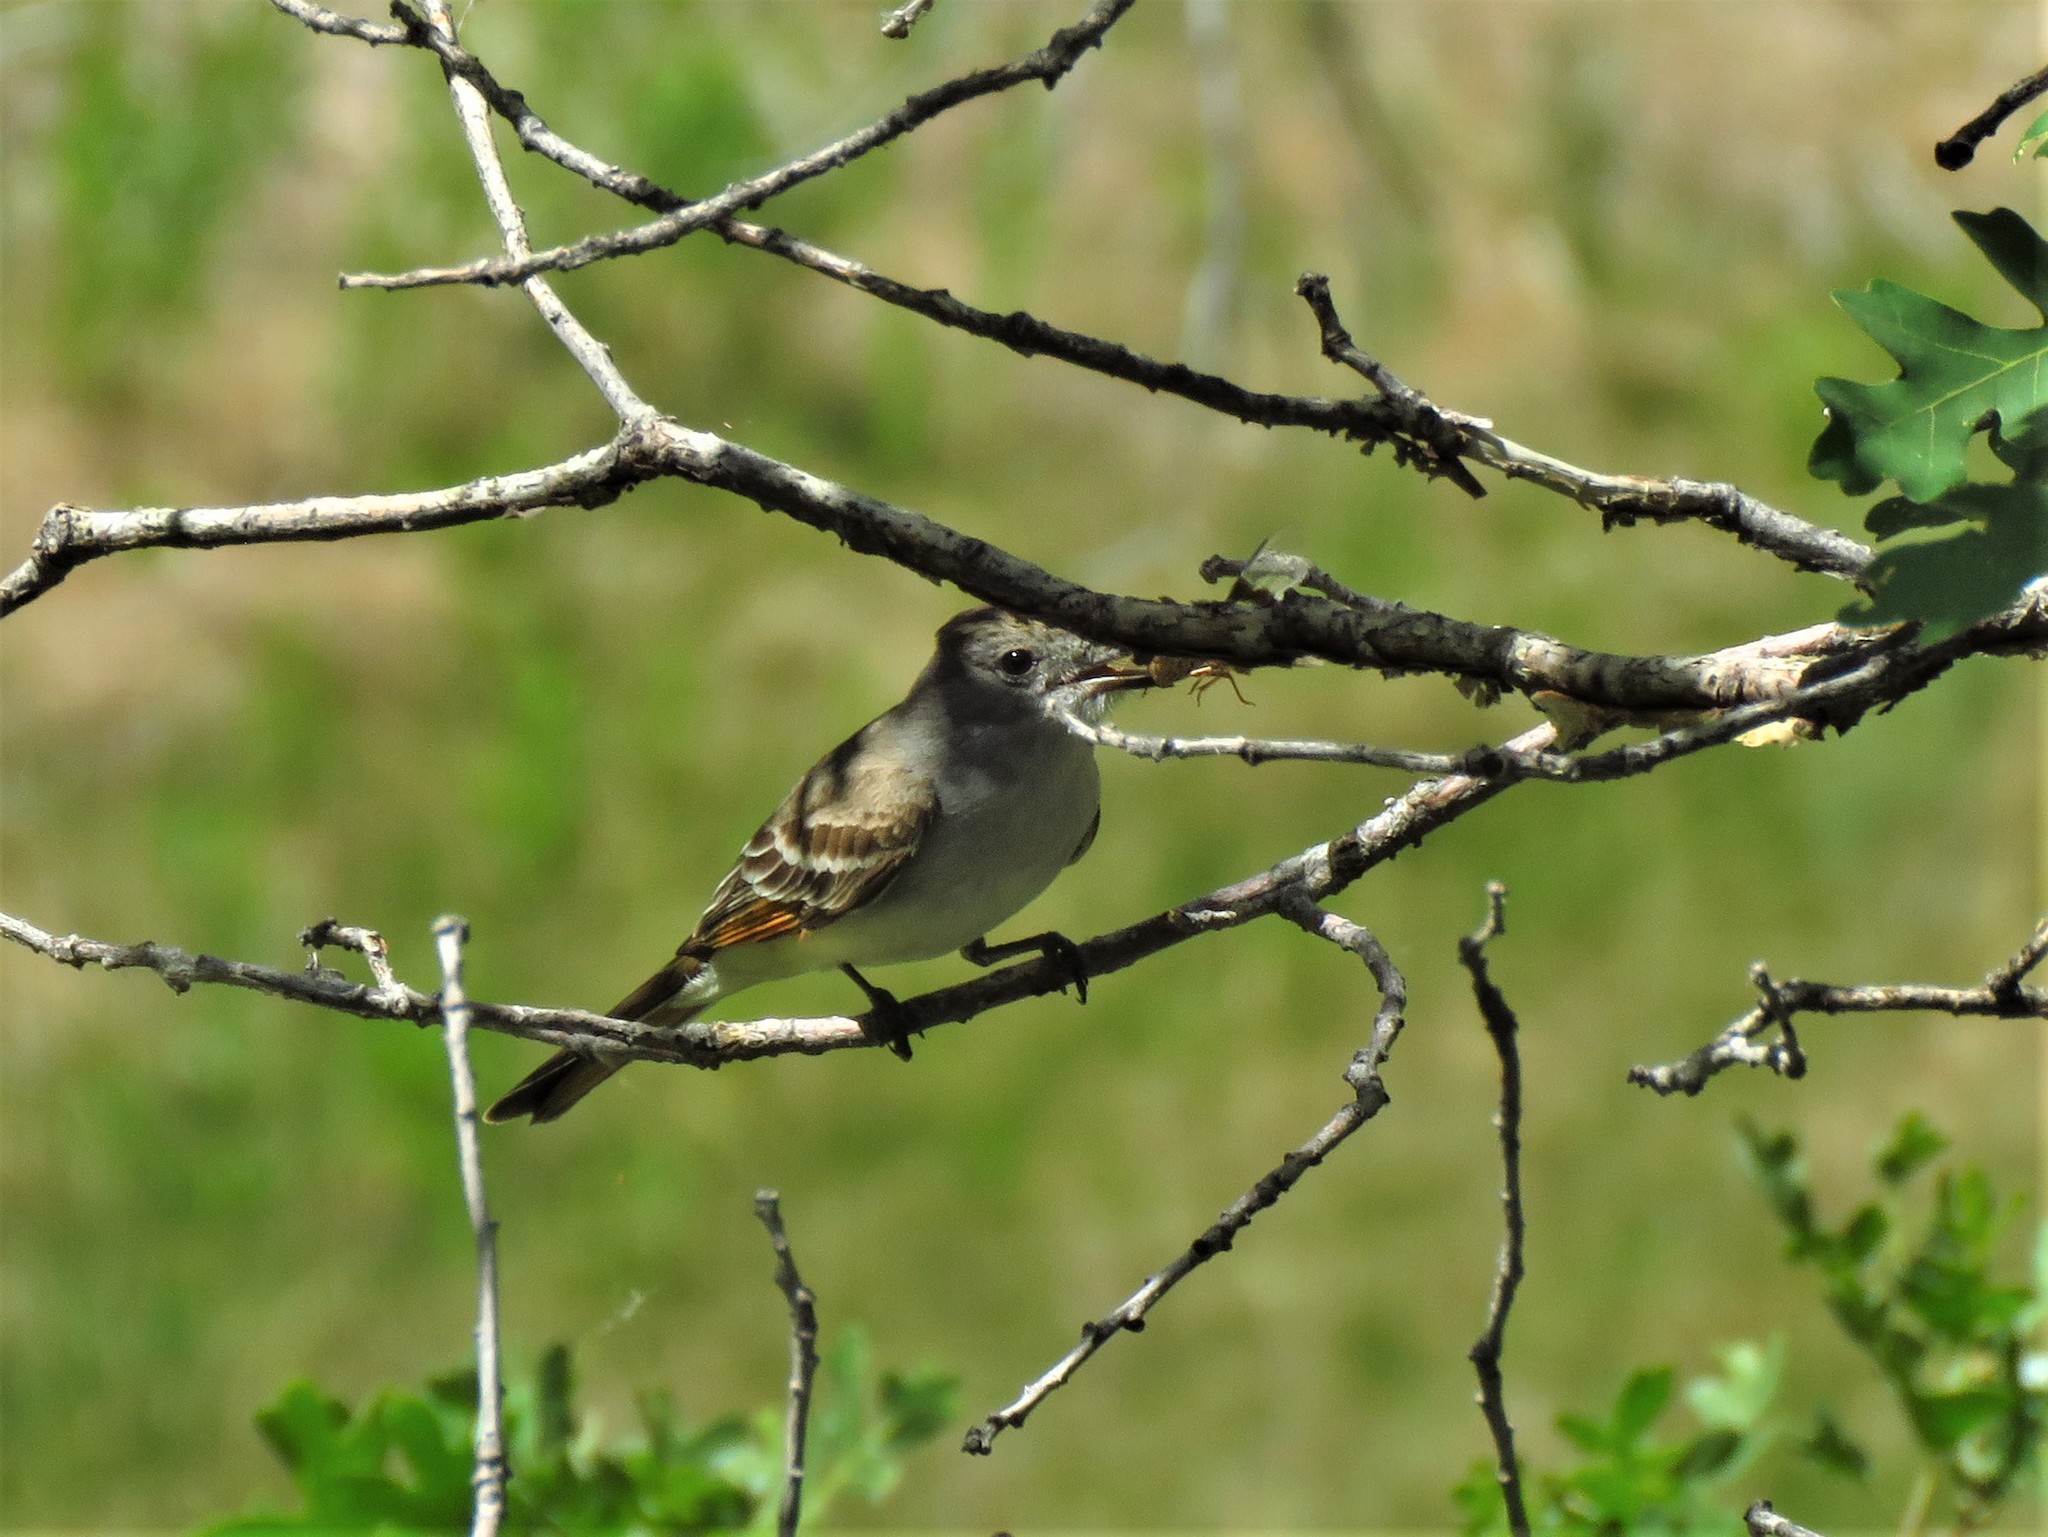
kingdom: Animalia
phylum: Chordata
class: Aves
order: Passeriformes
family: Tyrannidae
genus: Myiarchus
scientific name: Myiarchus cinerascens
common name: Ash-throated flycatcher
